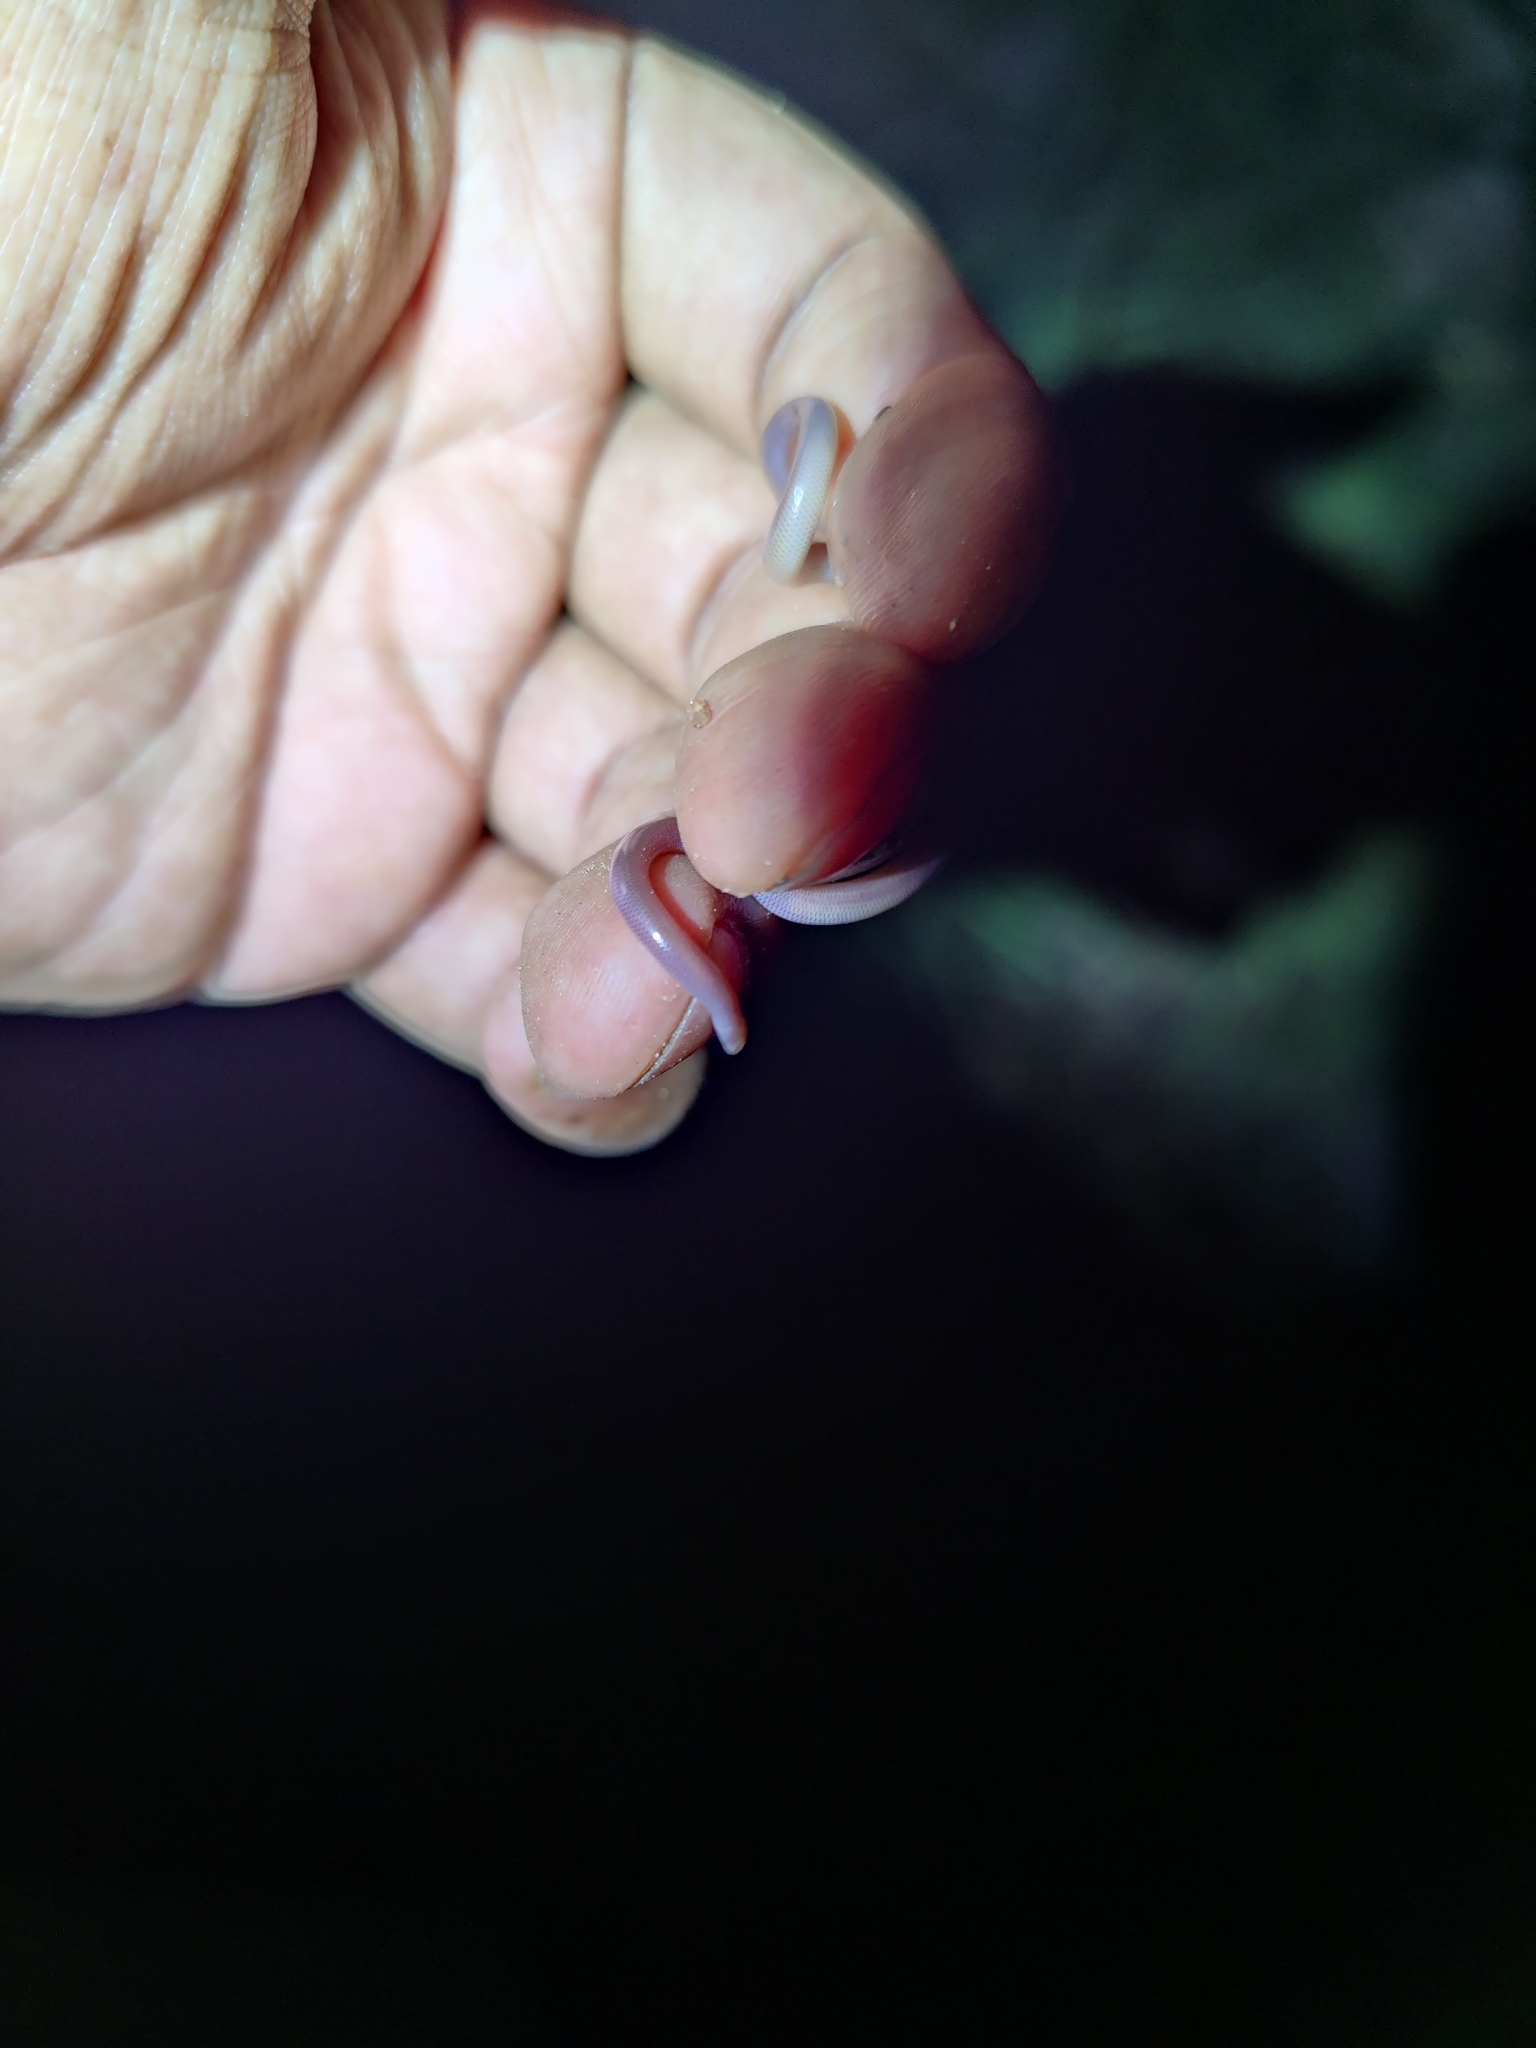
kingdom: Animalia
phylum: Chordata
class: Squamata
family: Typhlopidae
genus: Indotyphlops
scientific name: Indotyphlops braminus
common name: Brahminy blindsnake
